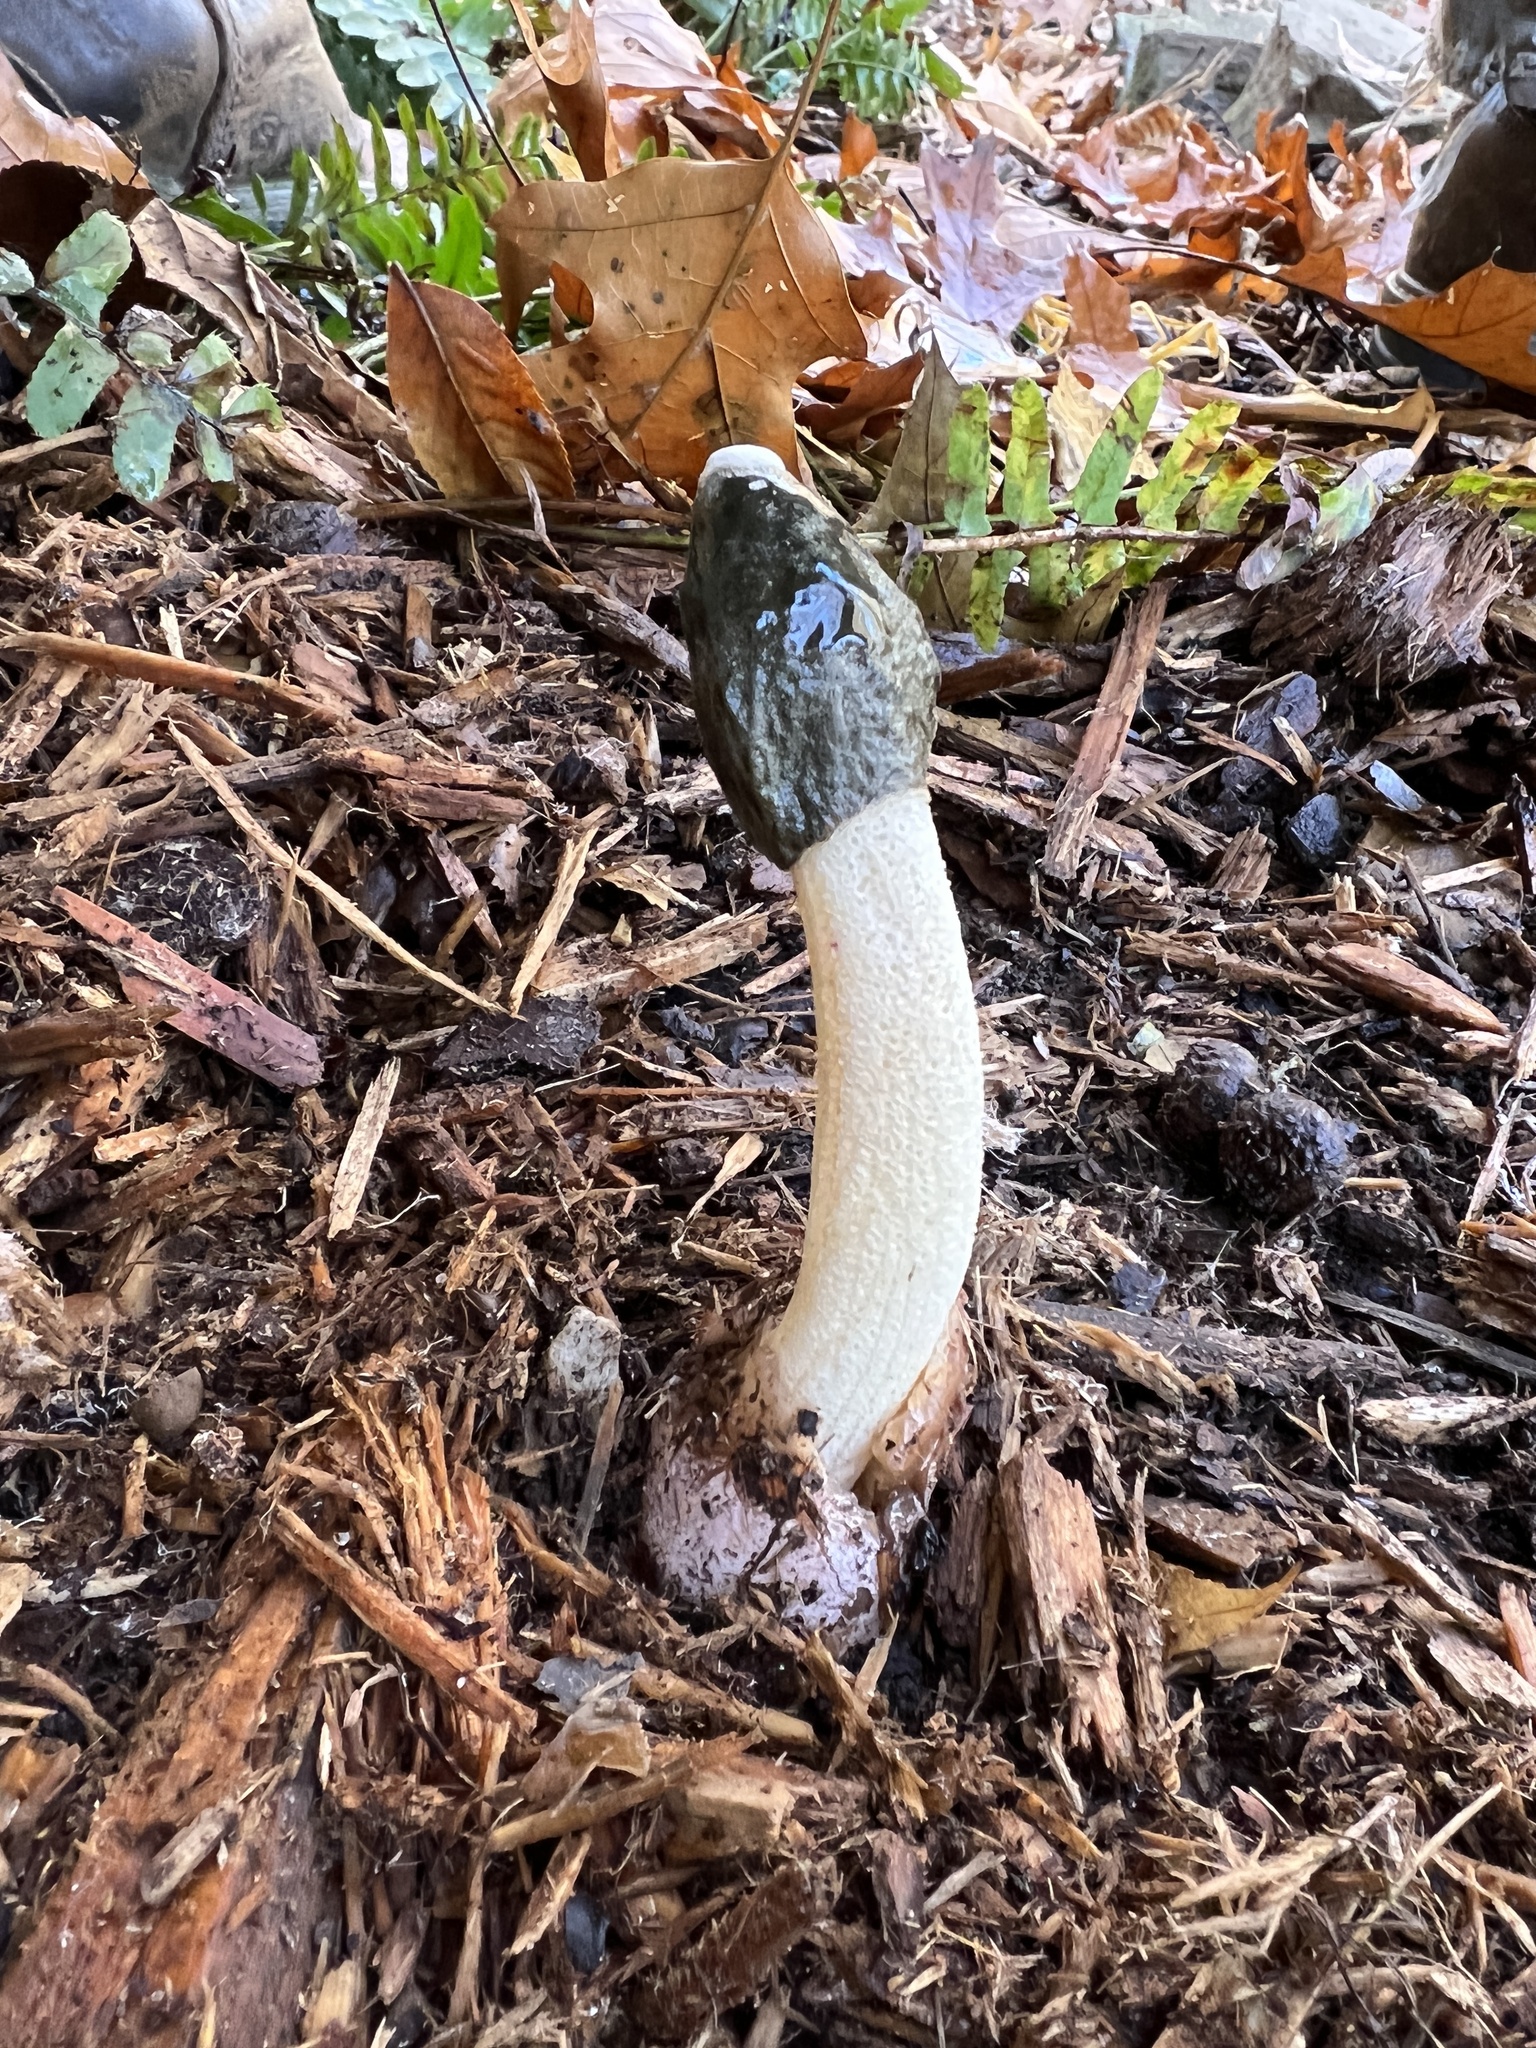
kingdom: Fungi
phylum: Basidiomycota
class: Agaricomycetes
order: Phallales
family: Phallaceae
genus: Phallus
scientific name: Phallus ravenelii
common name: Ravenel's stinkhorn
